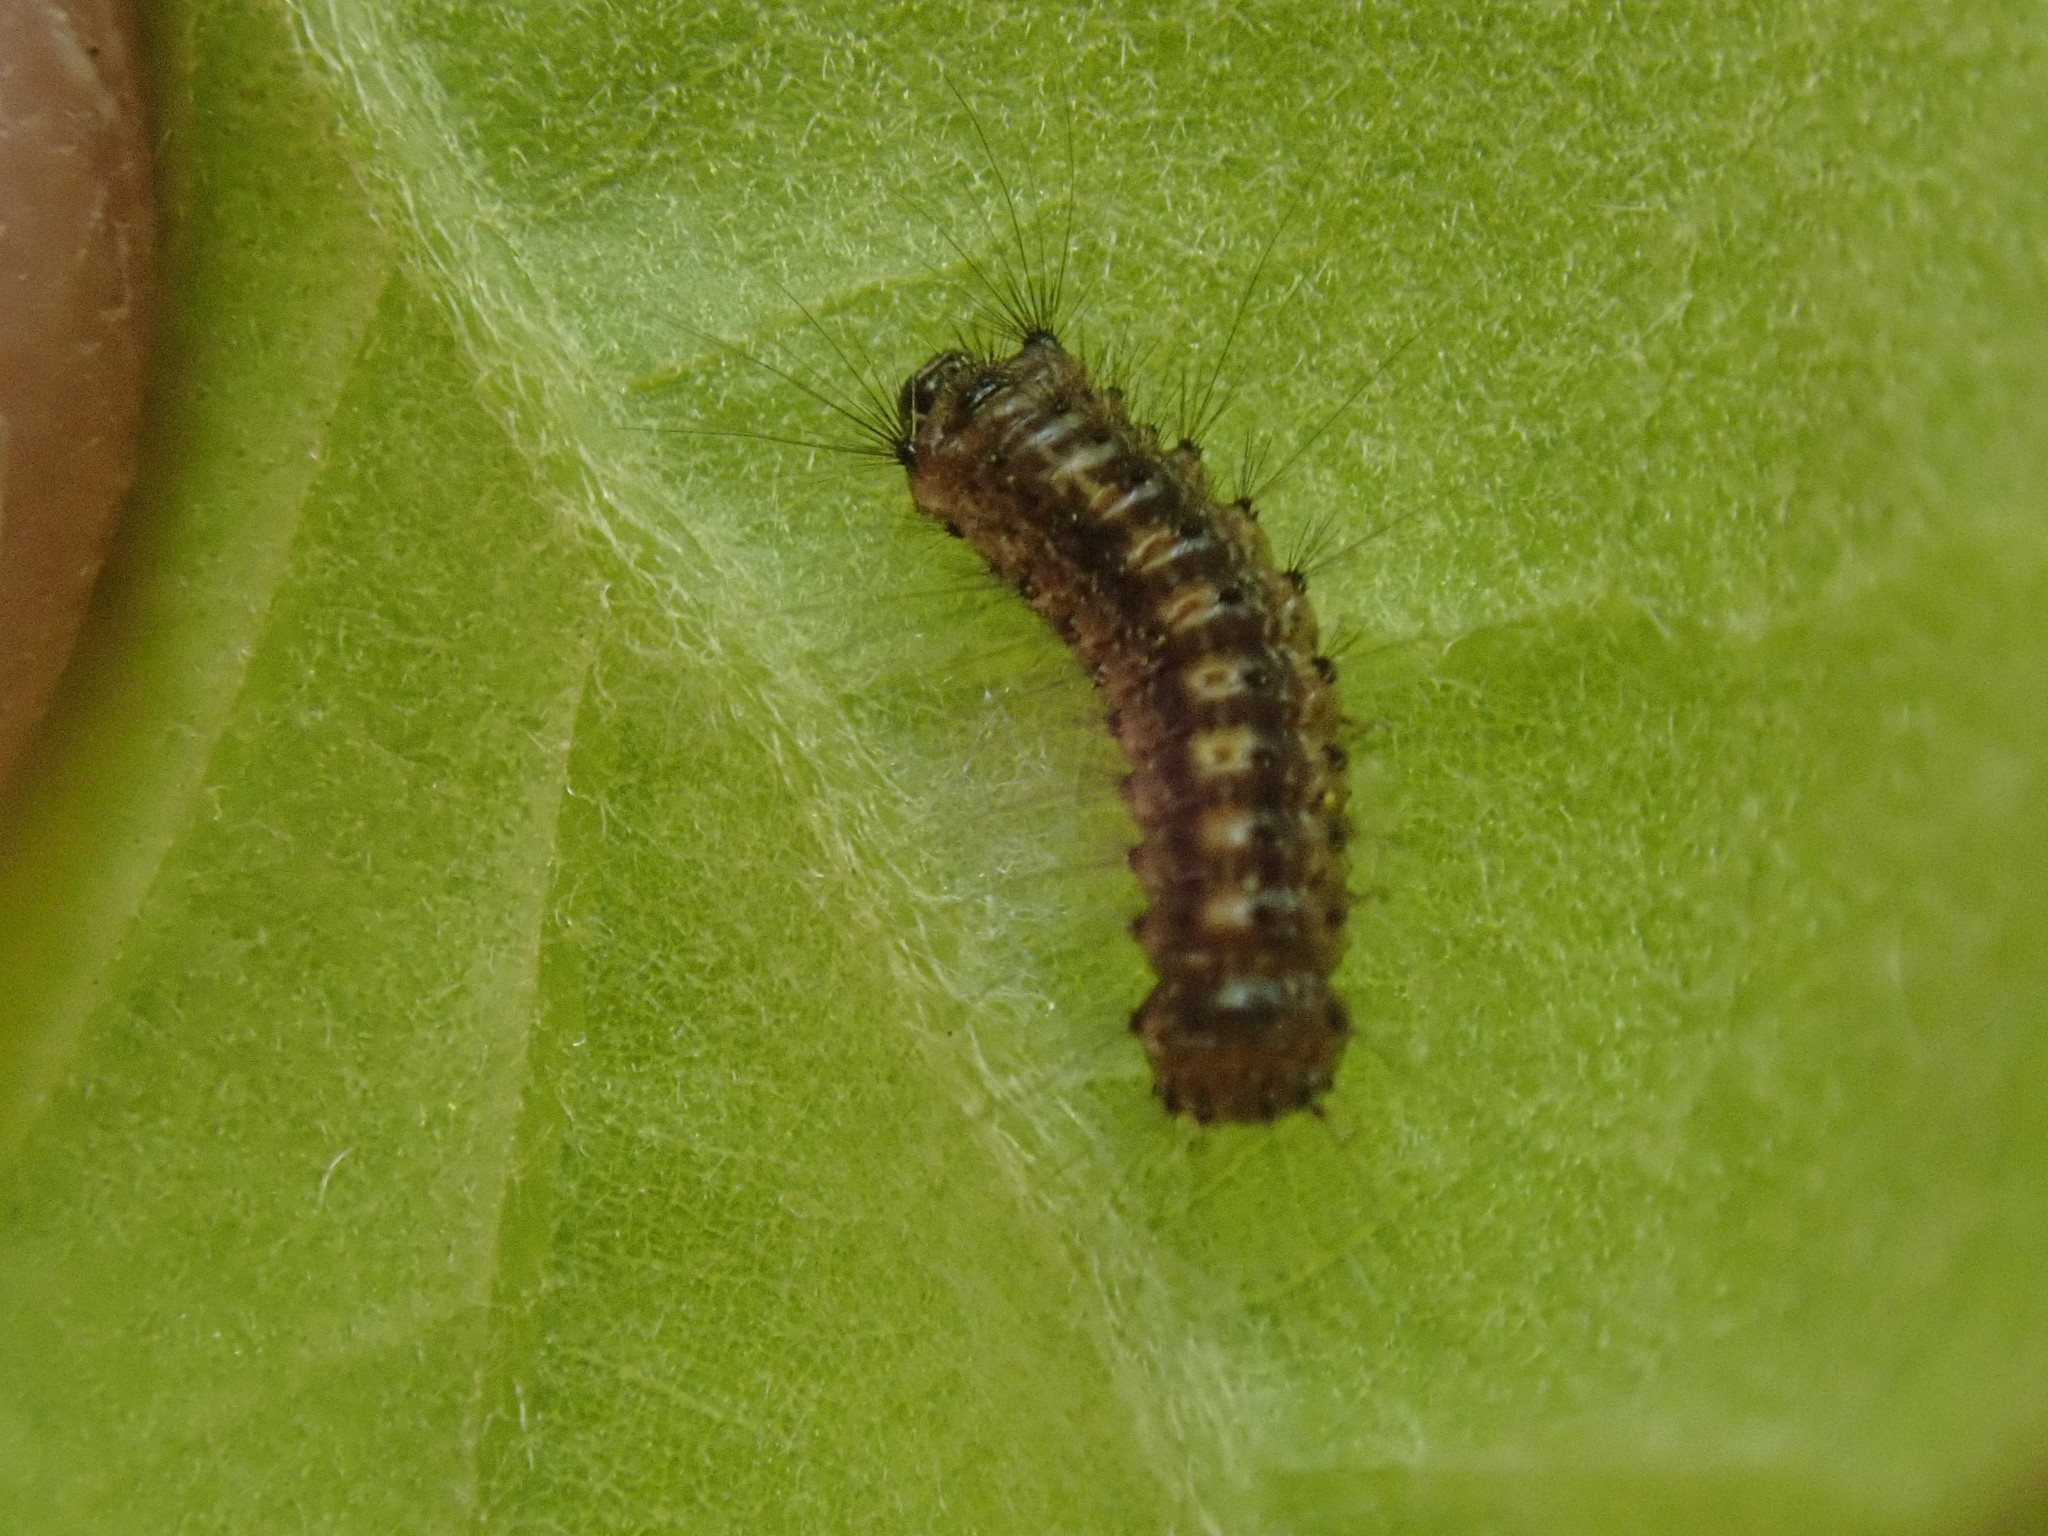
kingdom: Animalia
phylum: Arthropoda
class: Insecta
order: Lepidoptera
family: Erebidae
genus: Lymantria
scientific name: Lymantria dispar
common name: Gypsy moth
